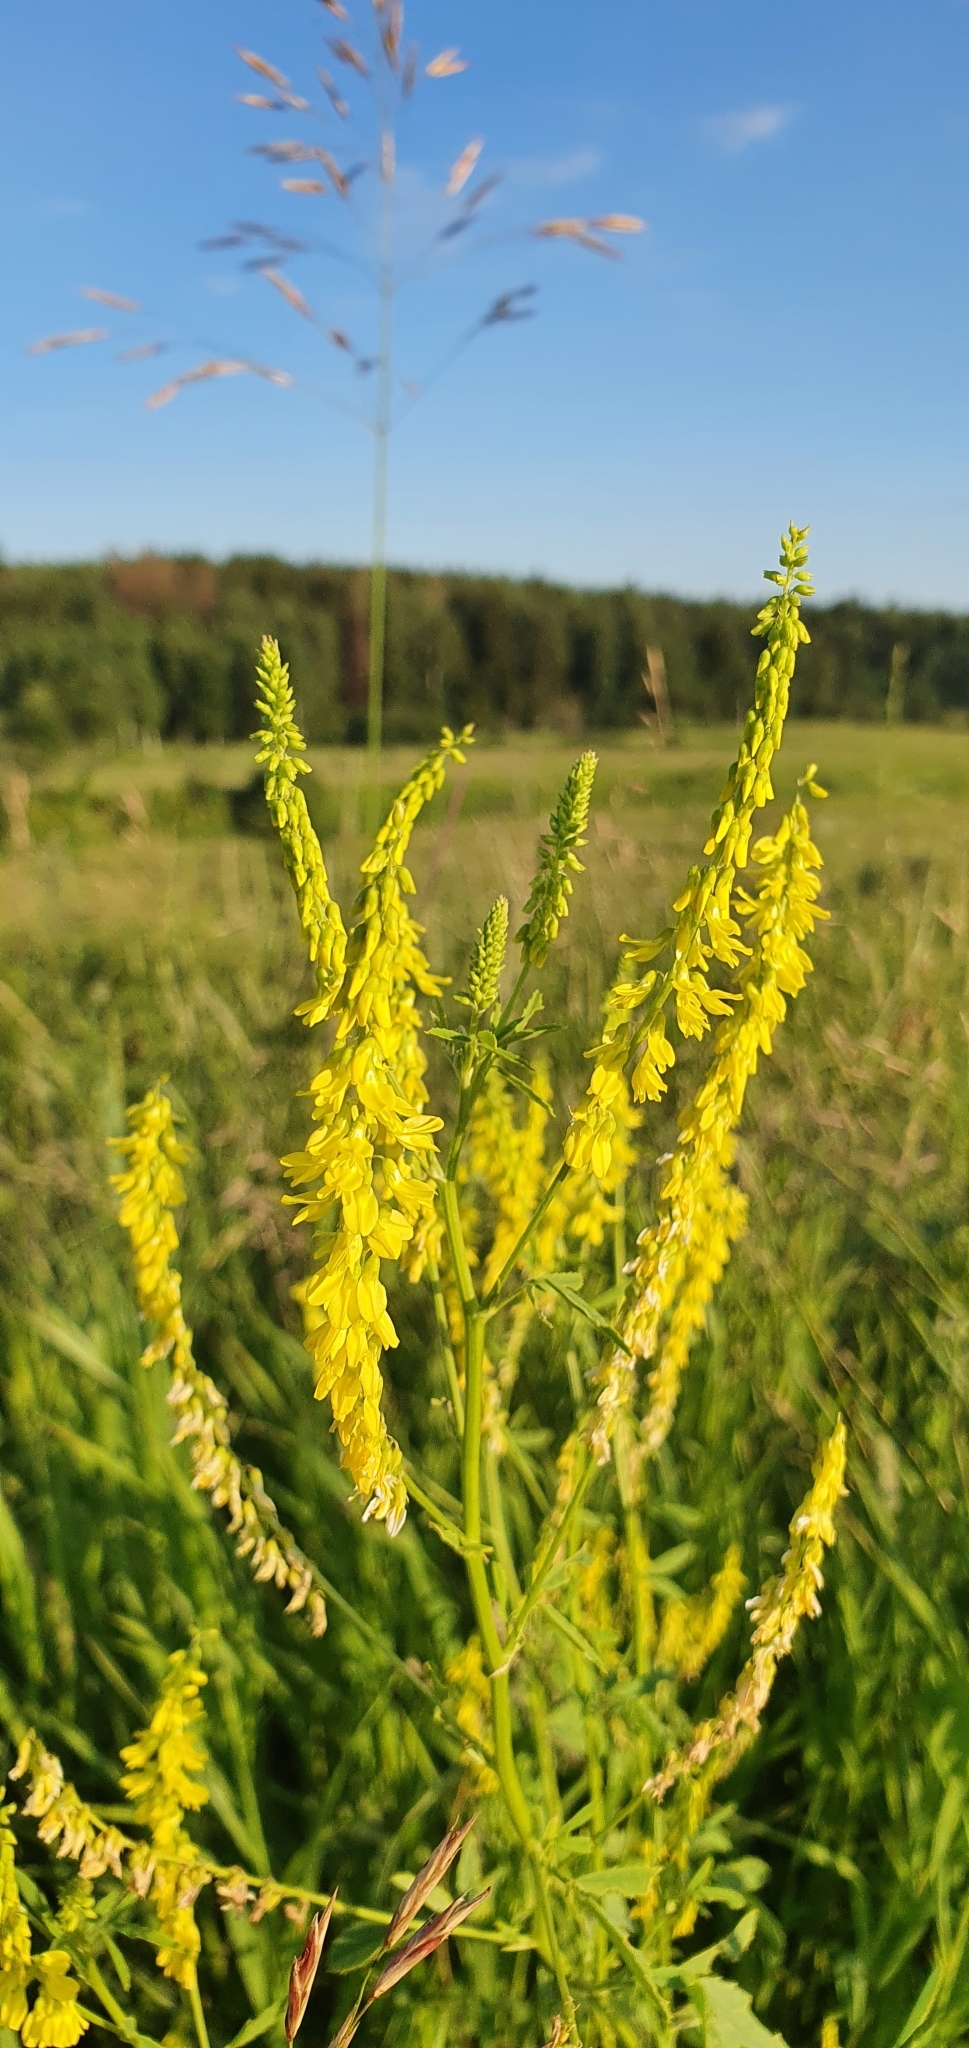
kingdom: Plantae
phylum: Tracheophyta
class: Magnoliopsida
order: Fabales
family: Fabaceae
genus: Melilotus
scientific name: Melilotus officinalis
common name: Sweetclover
